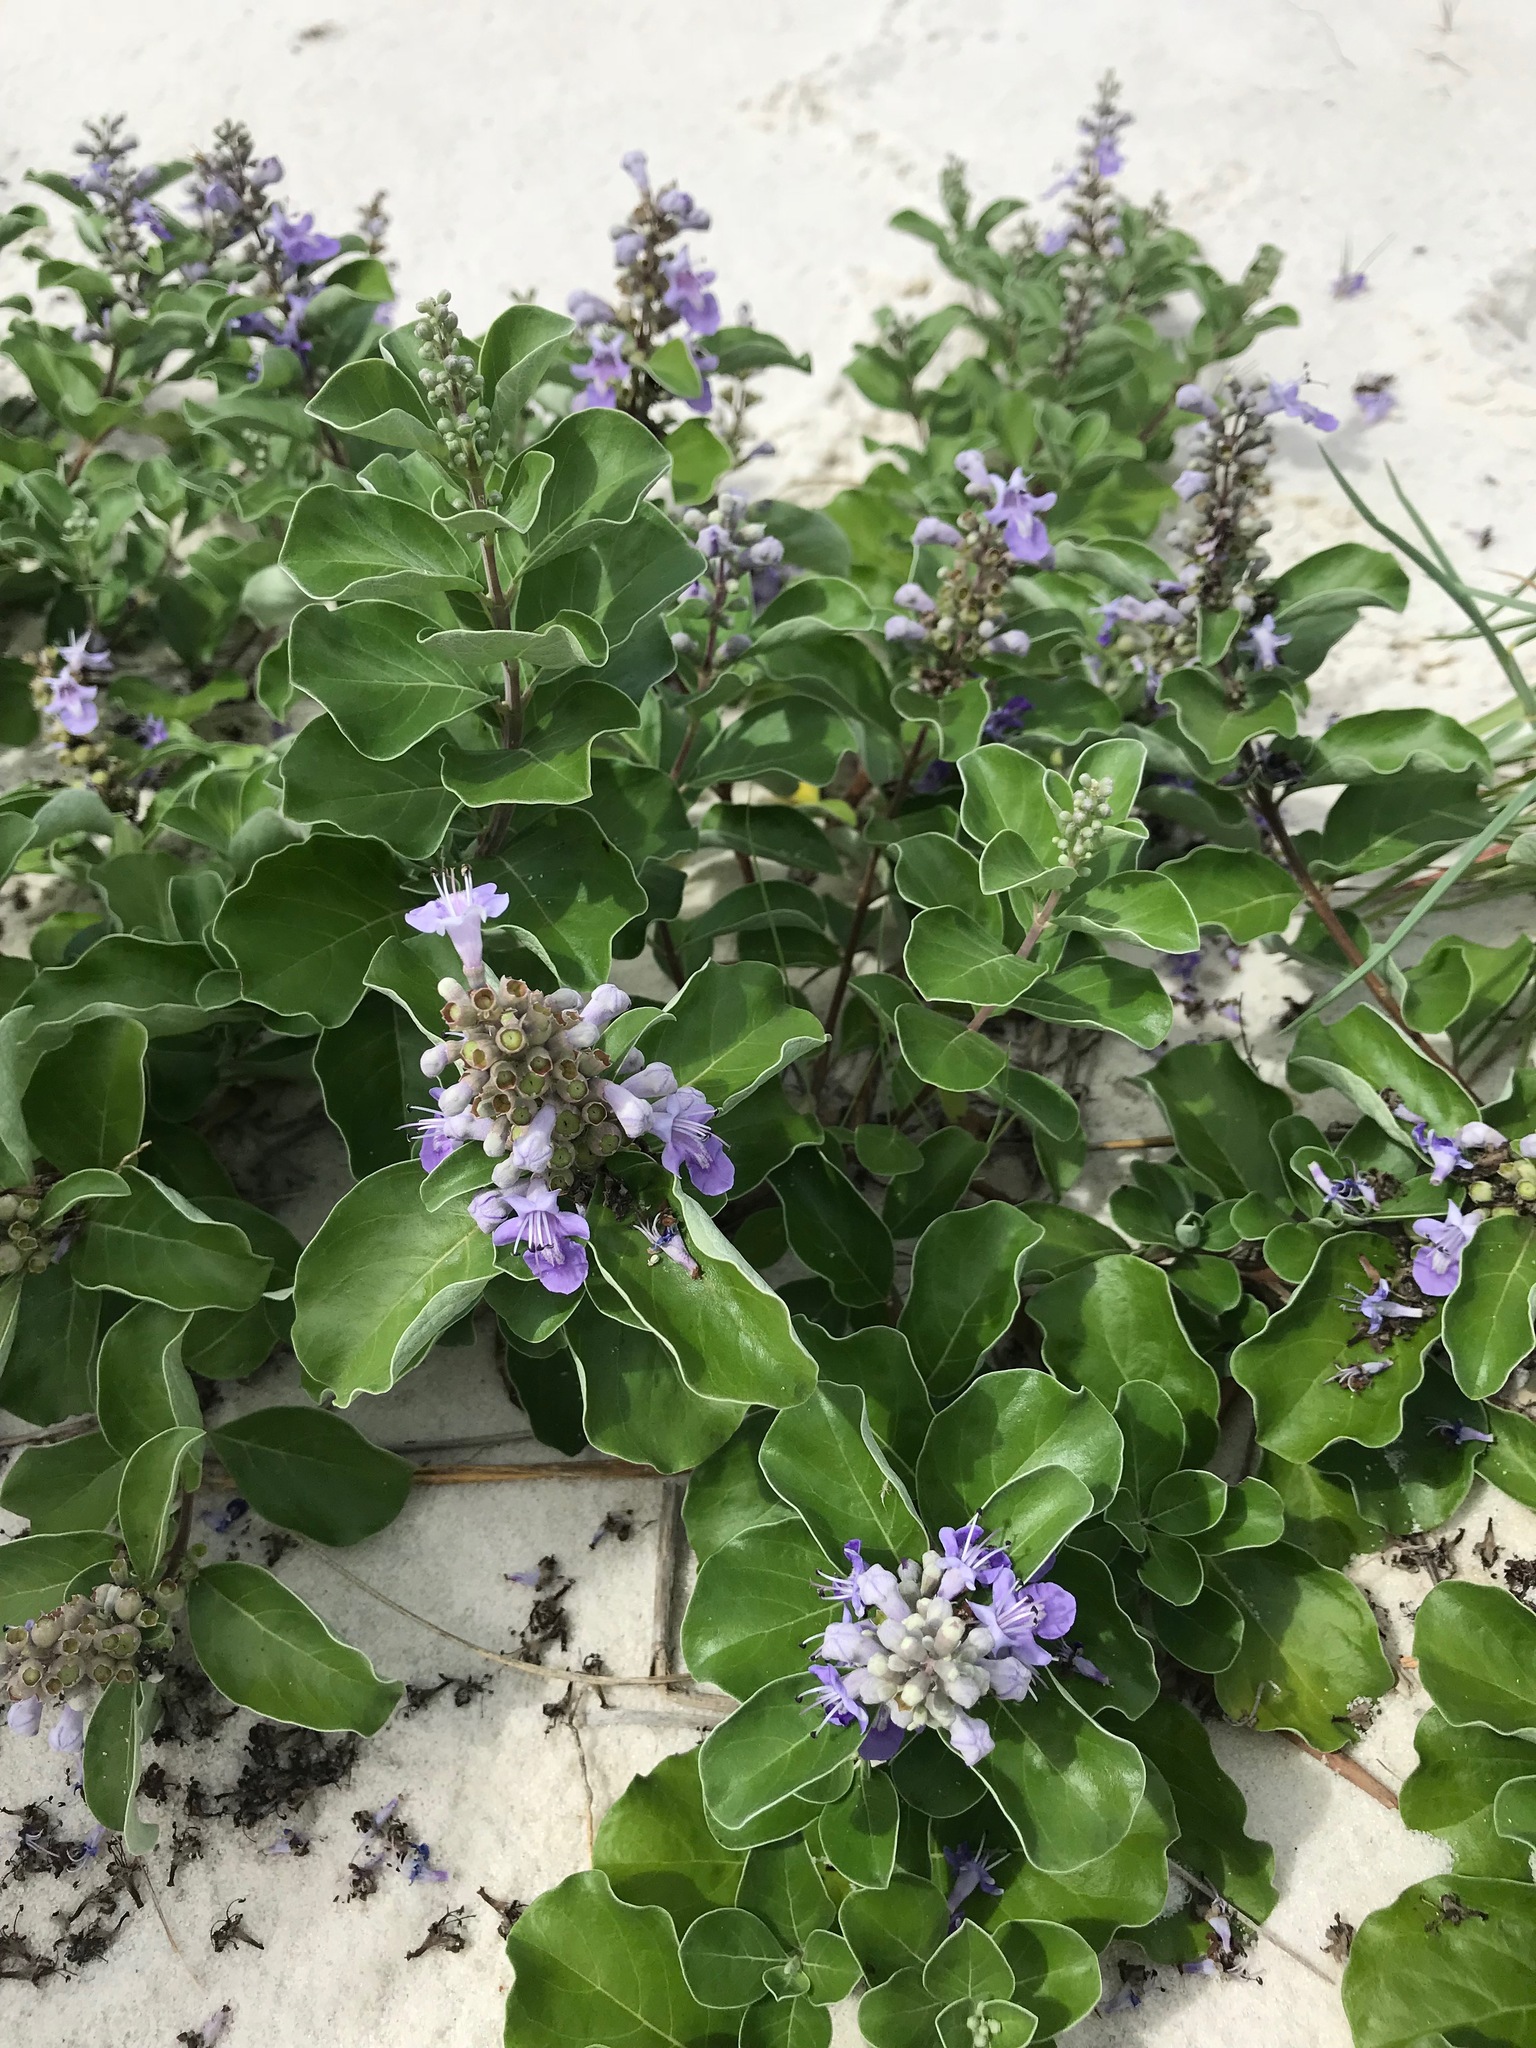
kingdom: Plantae
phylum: Tracheophyta
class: Magnoliopsida
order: Lamiales
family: Lamiaceae
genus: Vitex
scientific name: Vitex rotundifolia
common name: Beach vitex
